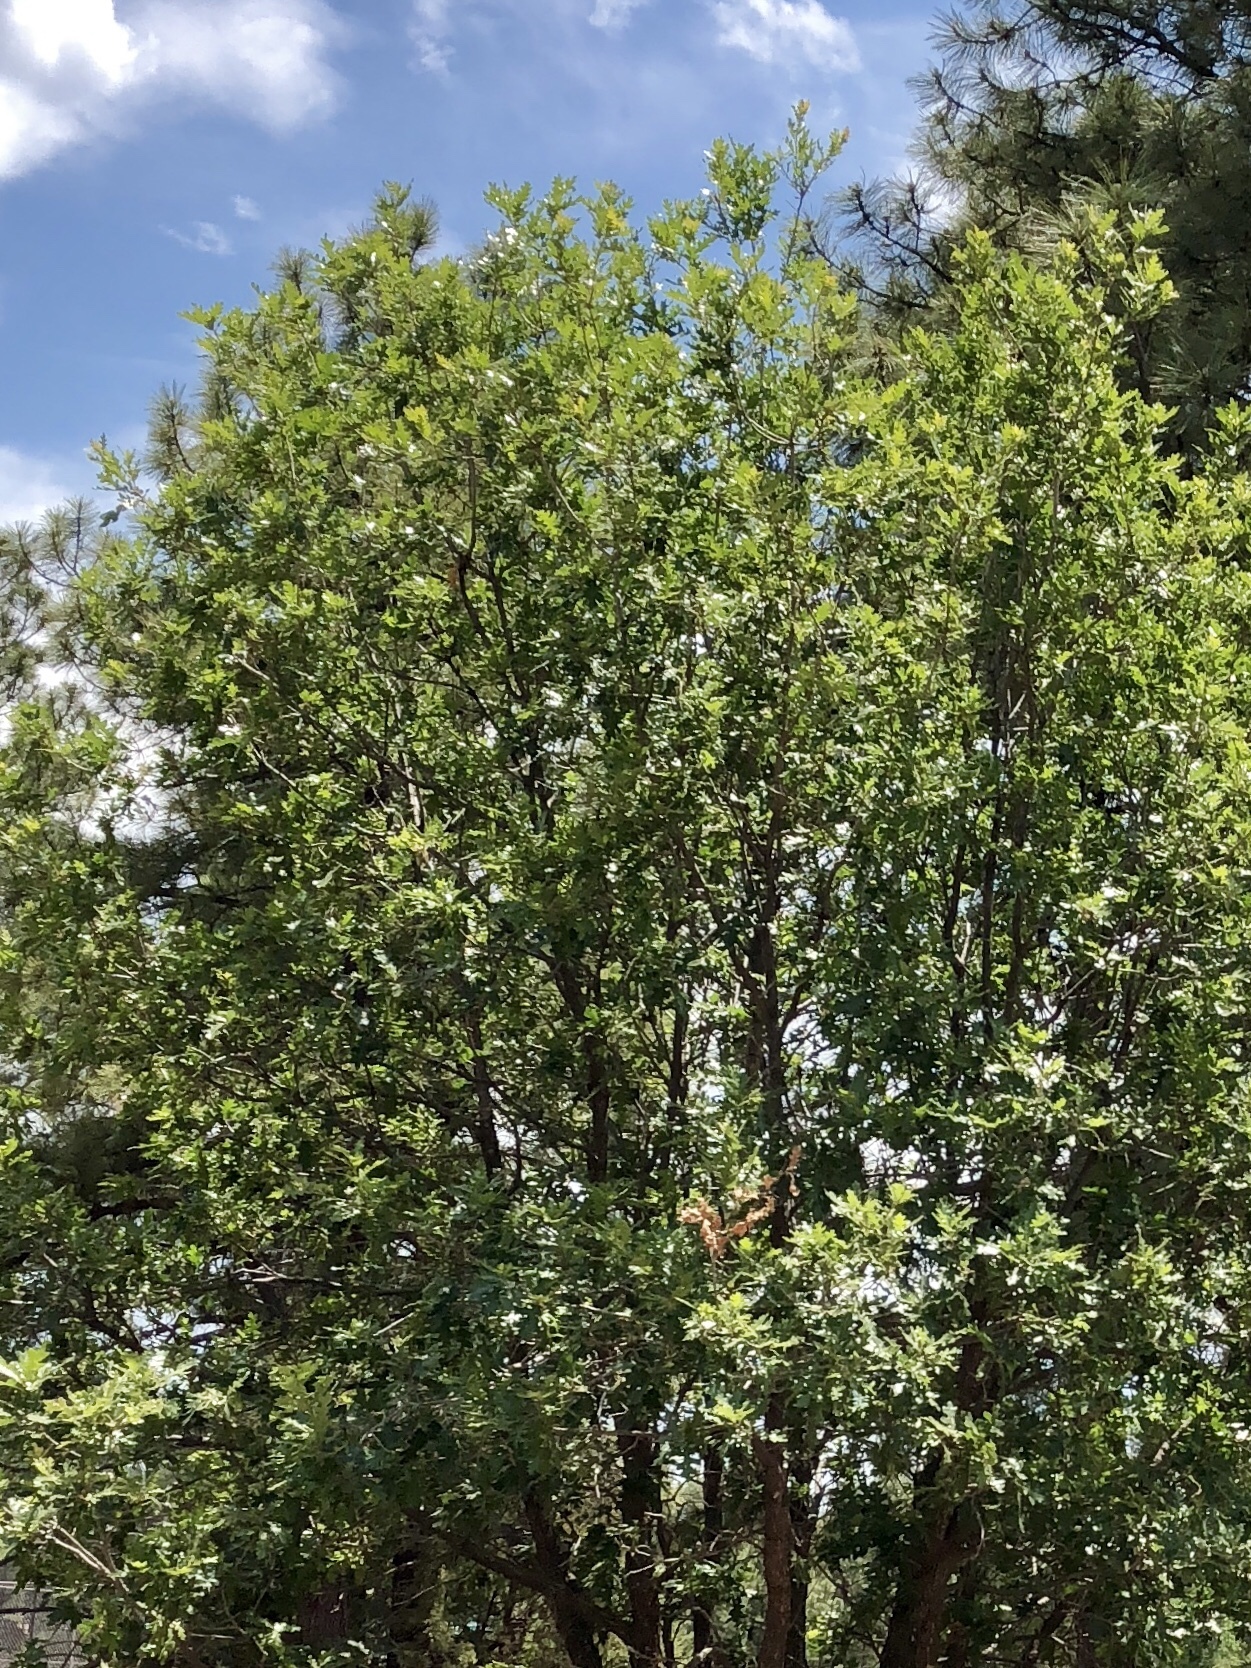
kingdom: Plantae
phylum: Tracheophyta
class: Magnoliopsida
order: Fagales
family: Fagaceae
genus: Quercus
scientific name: Quercus gambelii
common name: Gambel oak
